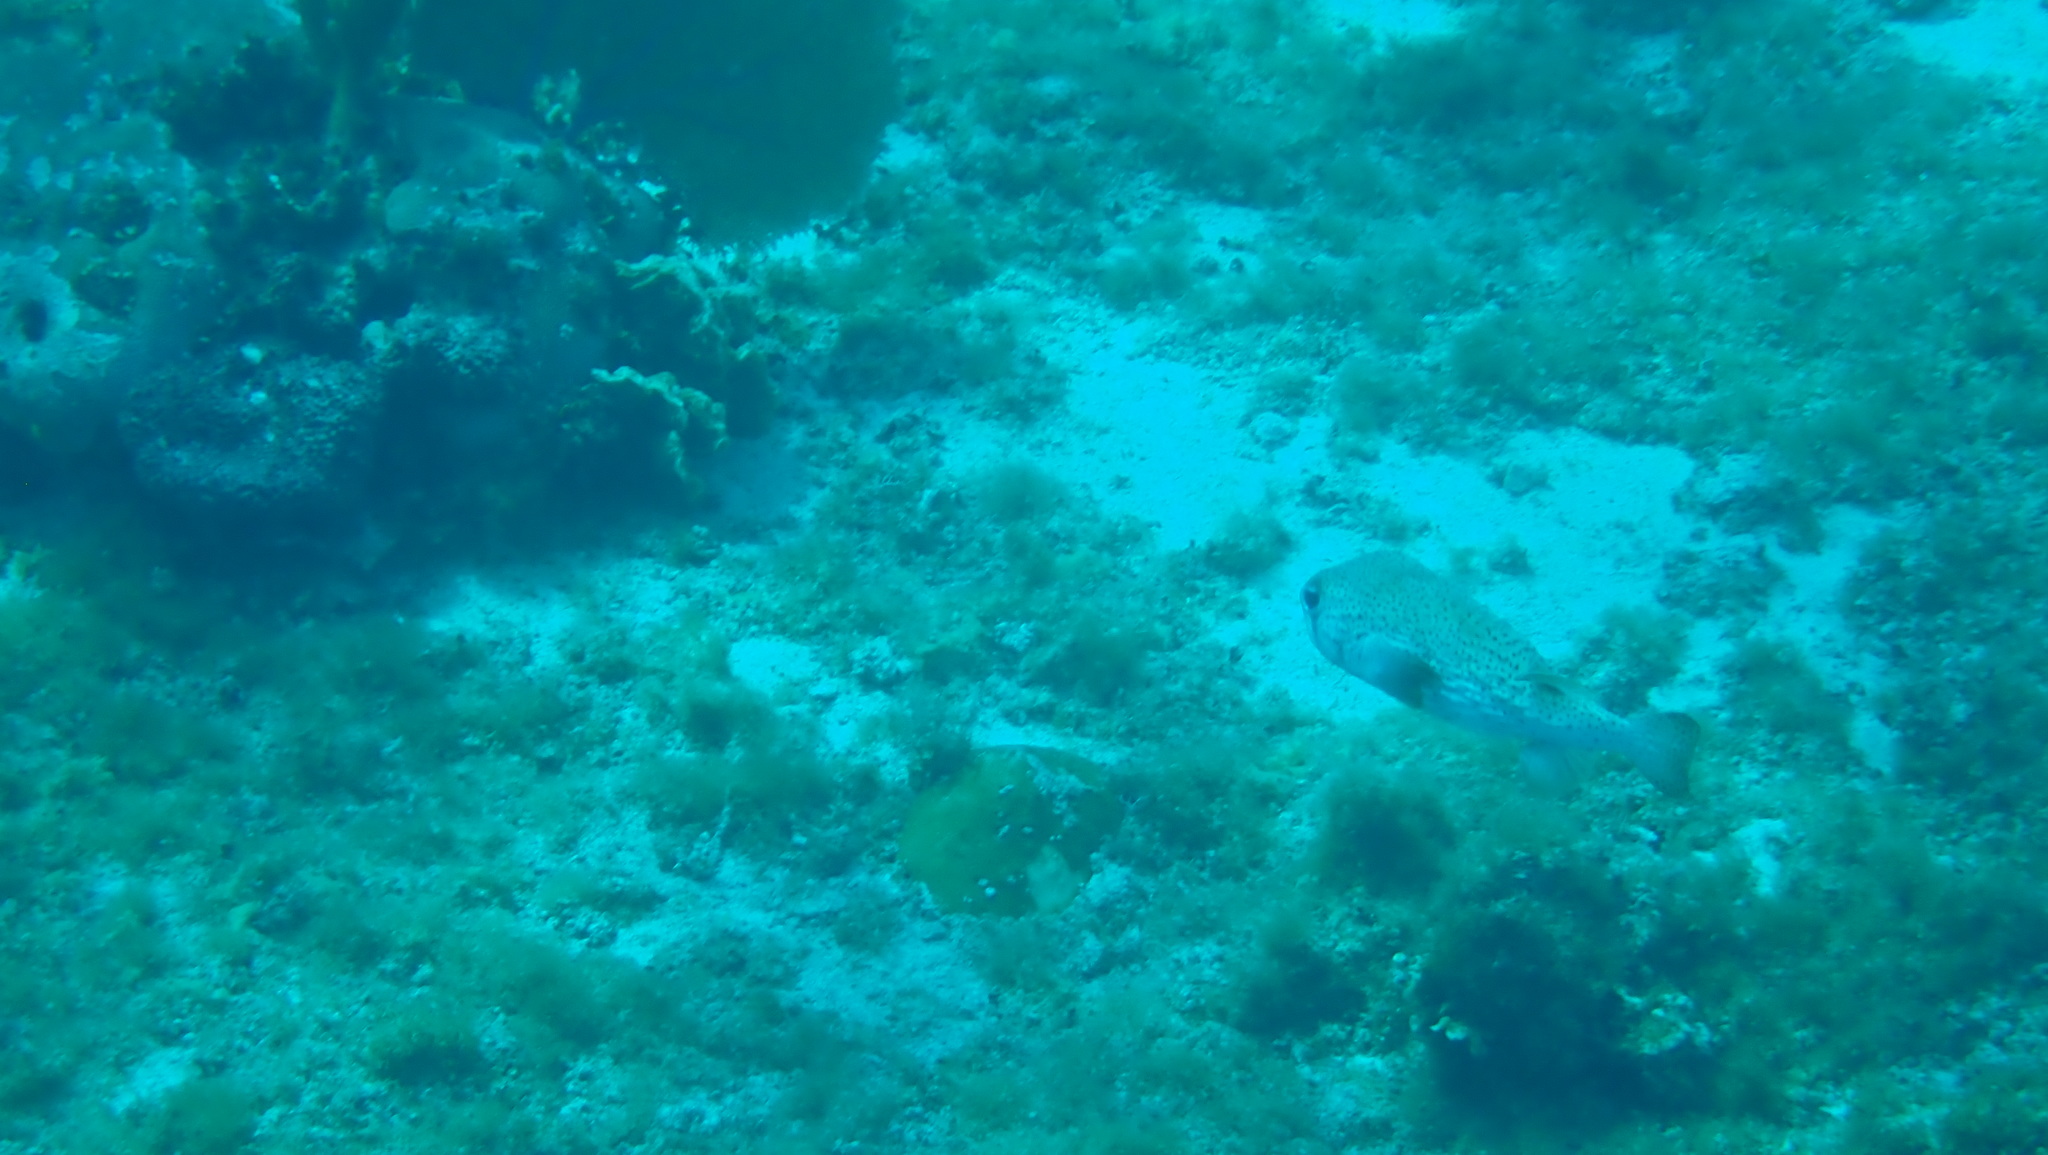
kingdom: Animalia
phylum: Chordata
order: Tetraodontiformes
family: Diodontidae
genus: Diodon
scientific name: Diodon hystrix
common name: Giant porcupinefish
